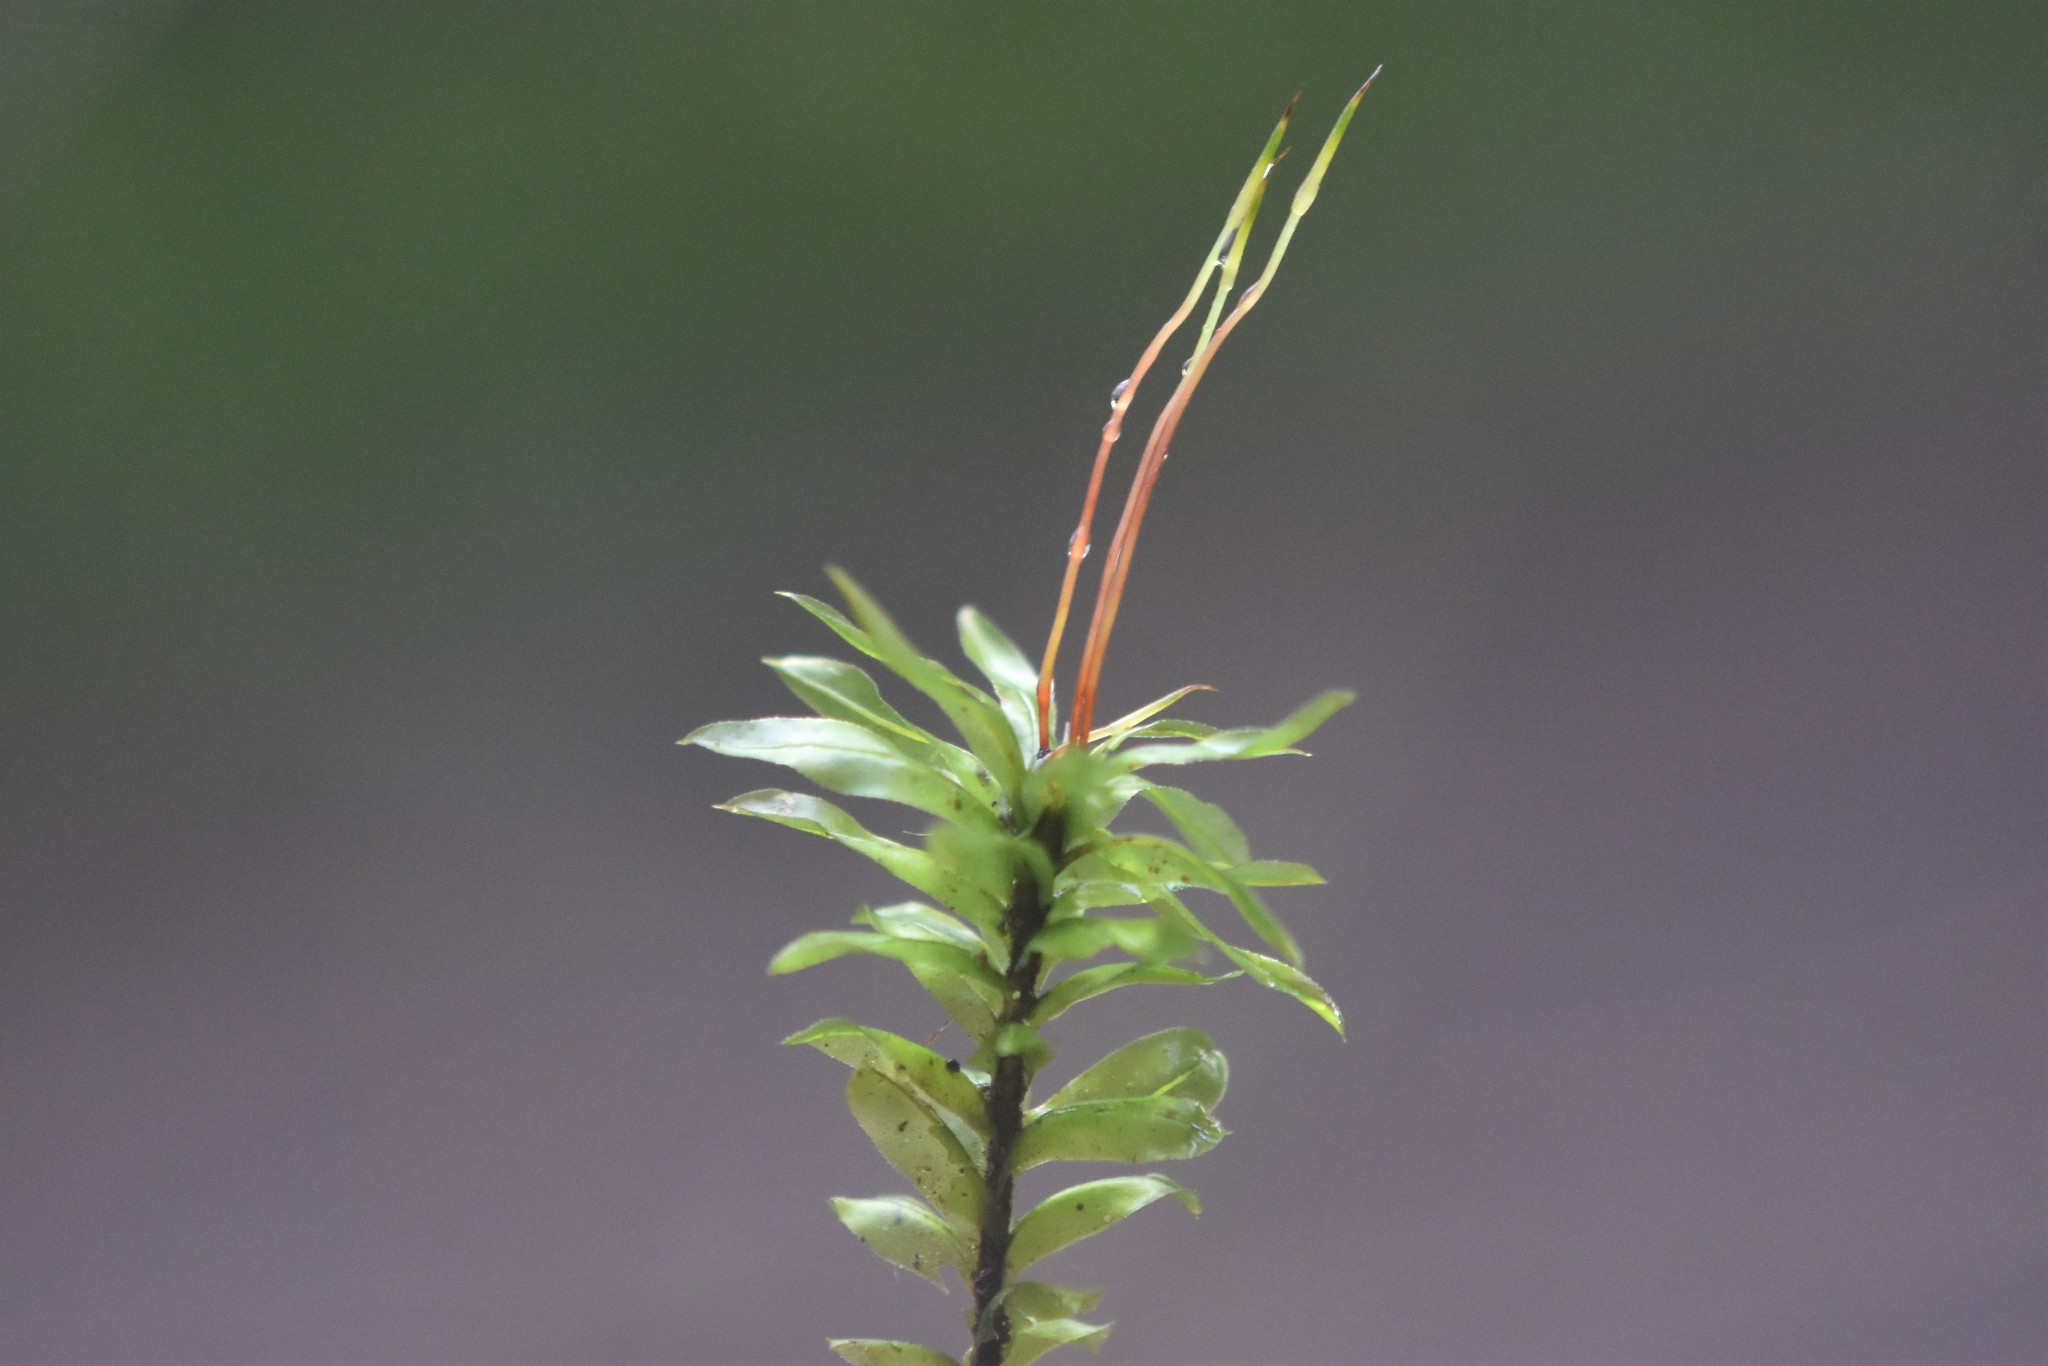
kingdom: Plantae
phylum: Bryophyta
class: Bryopsida
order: Bryales
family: Mniaceae
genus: Plagiomnium
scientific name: Plagiomnium insigne
